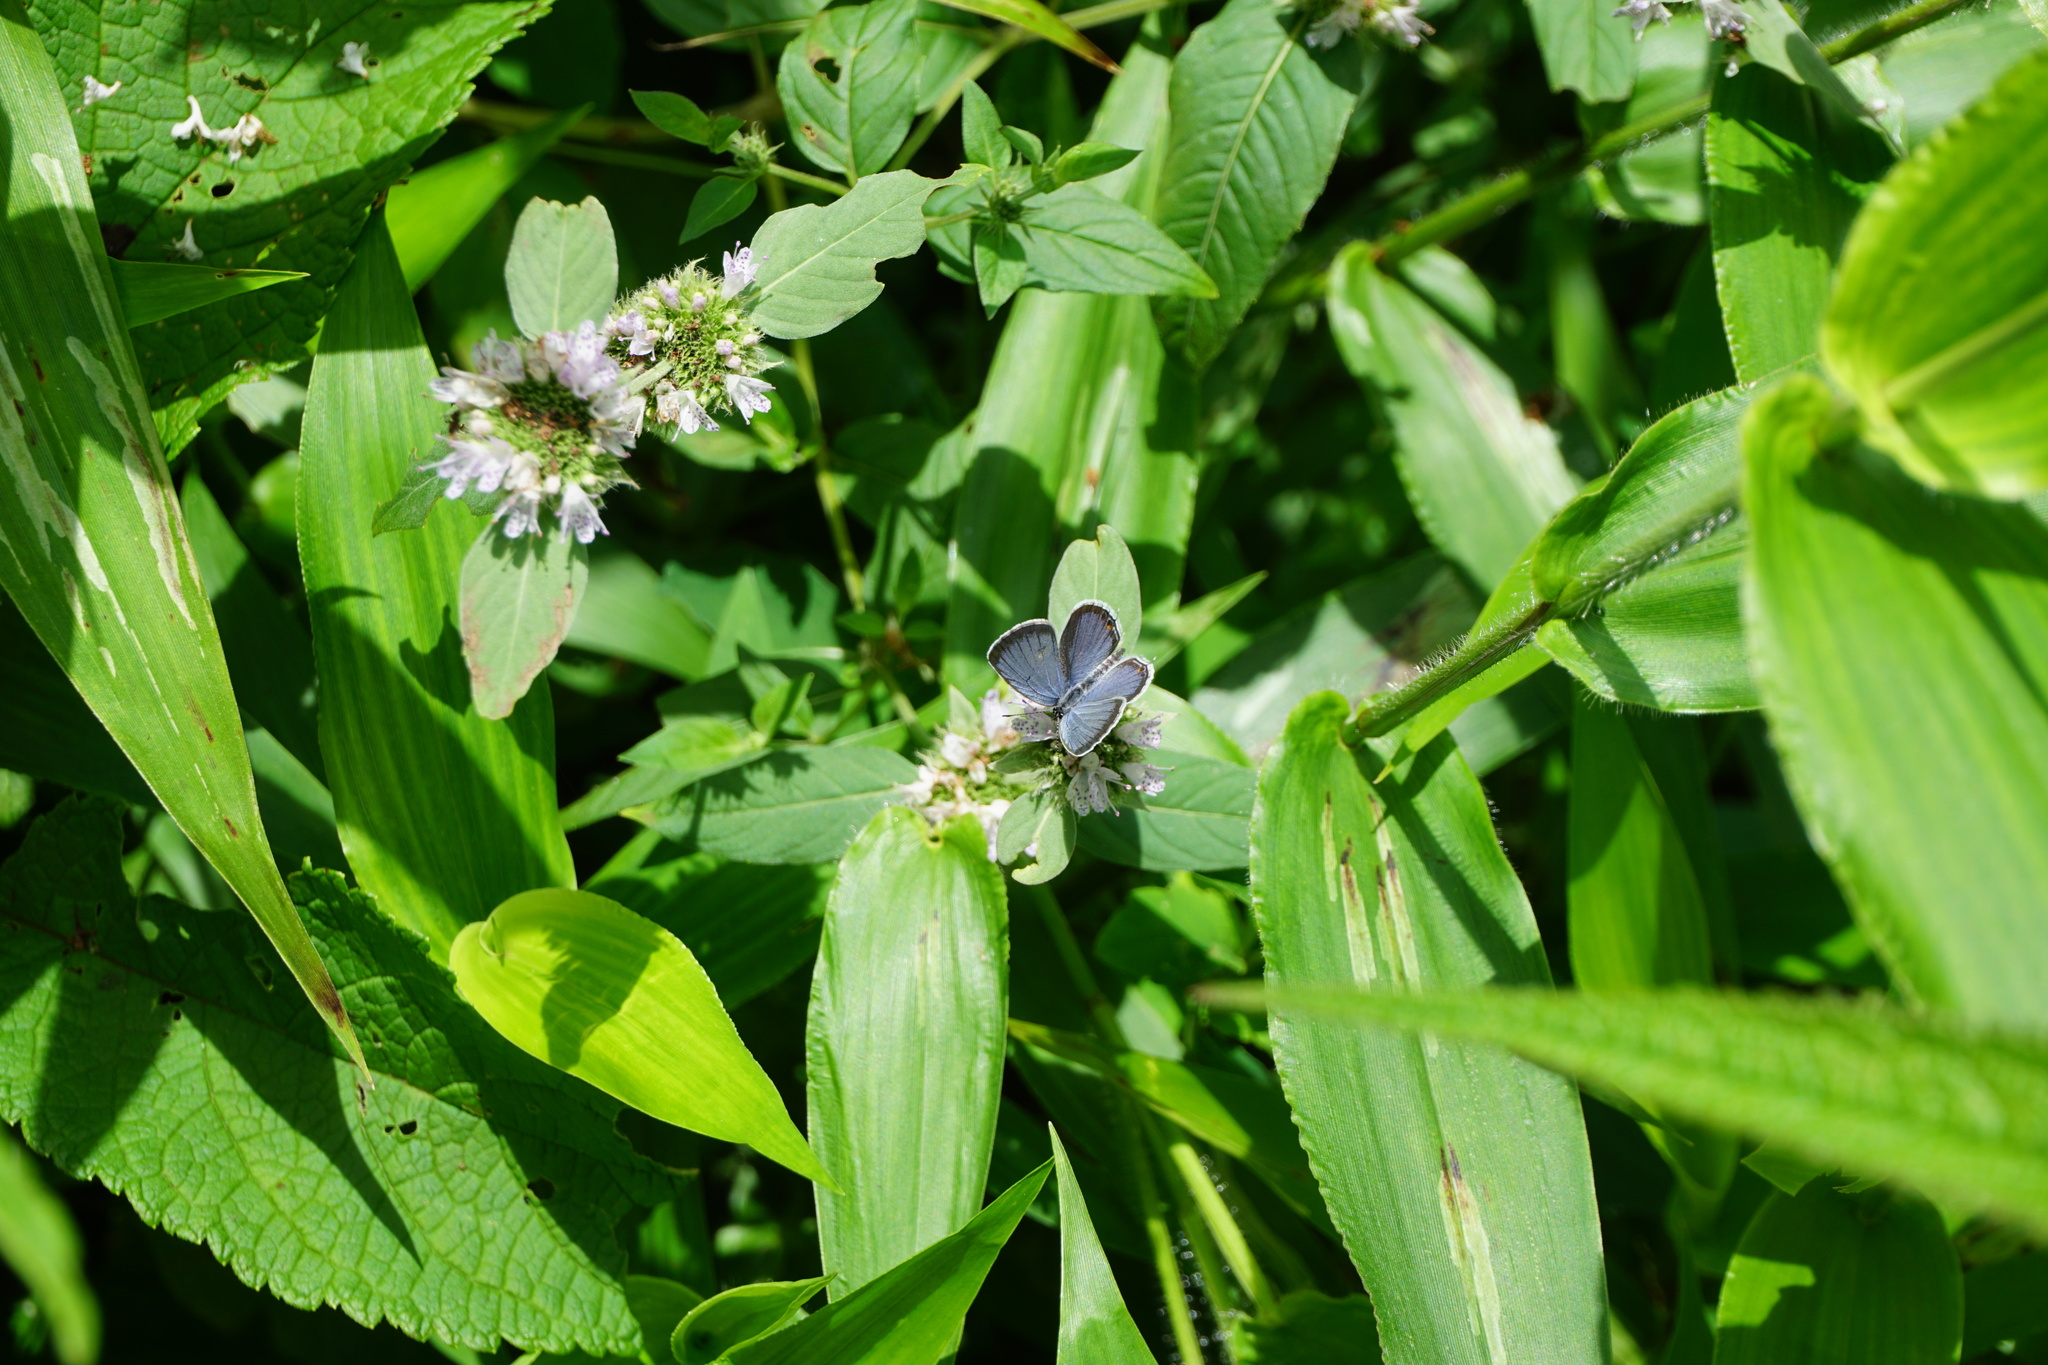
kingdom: Animalia
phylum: Arthropoda
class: Insecta
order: Lepidoptera
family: Lycaenidae
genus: Elkalyce
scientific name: Elkalyce comyntas
